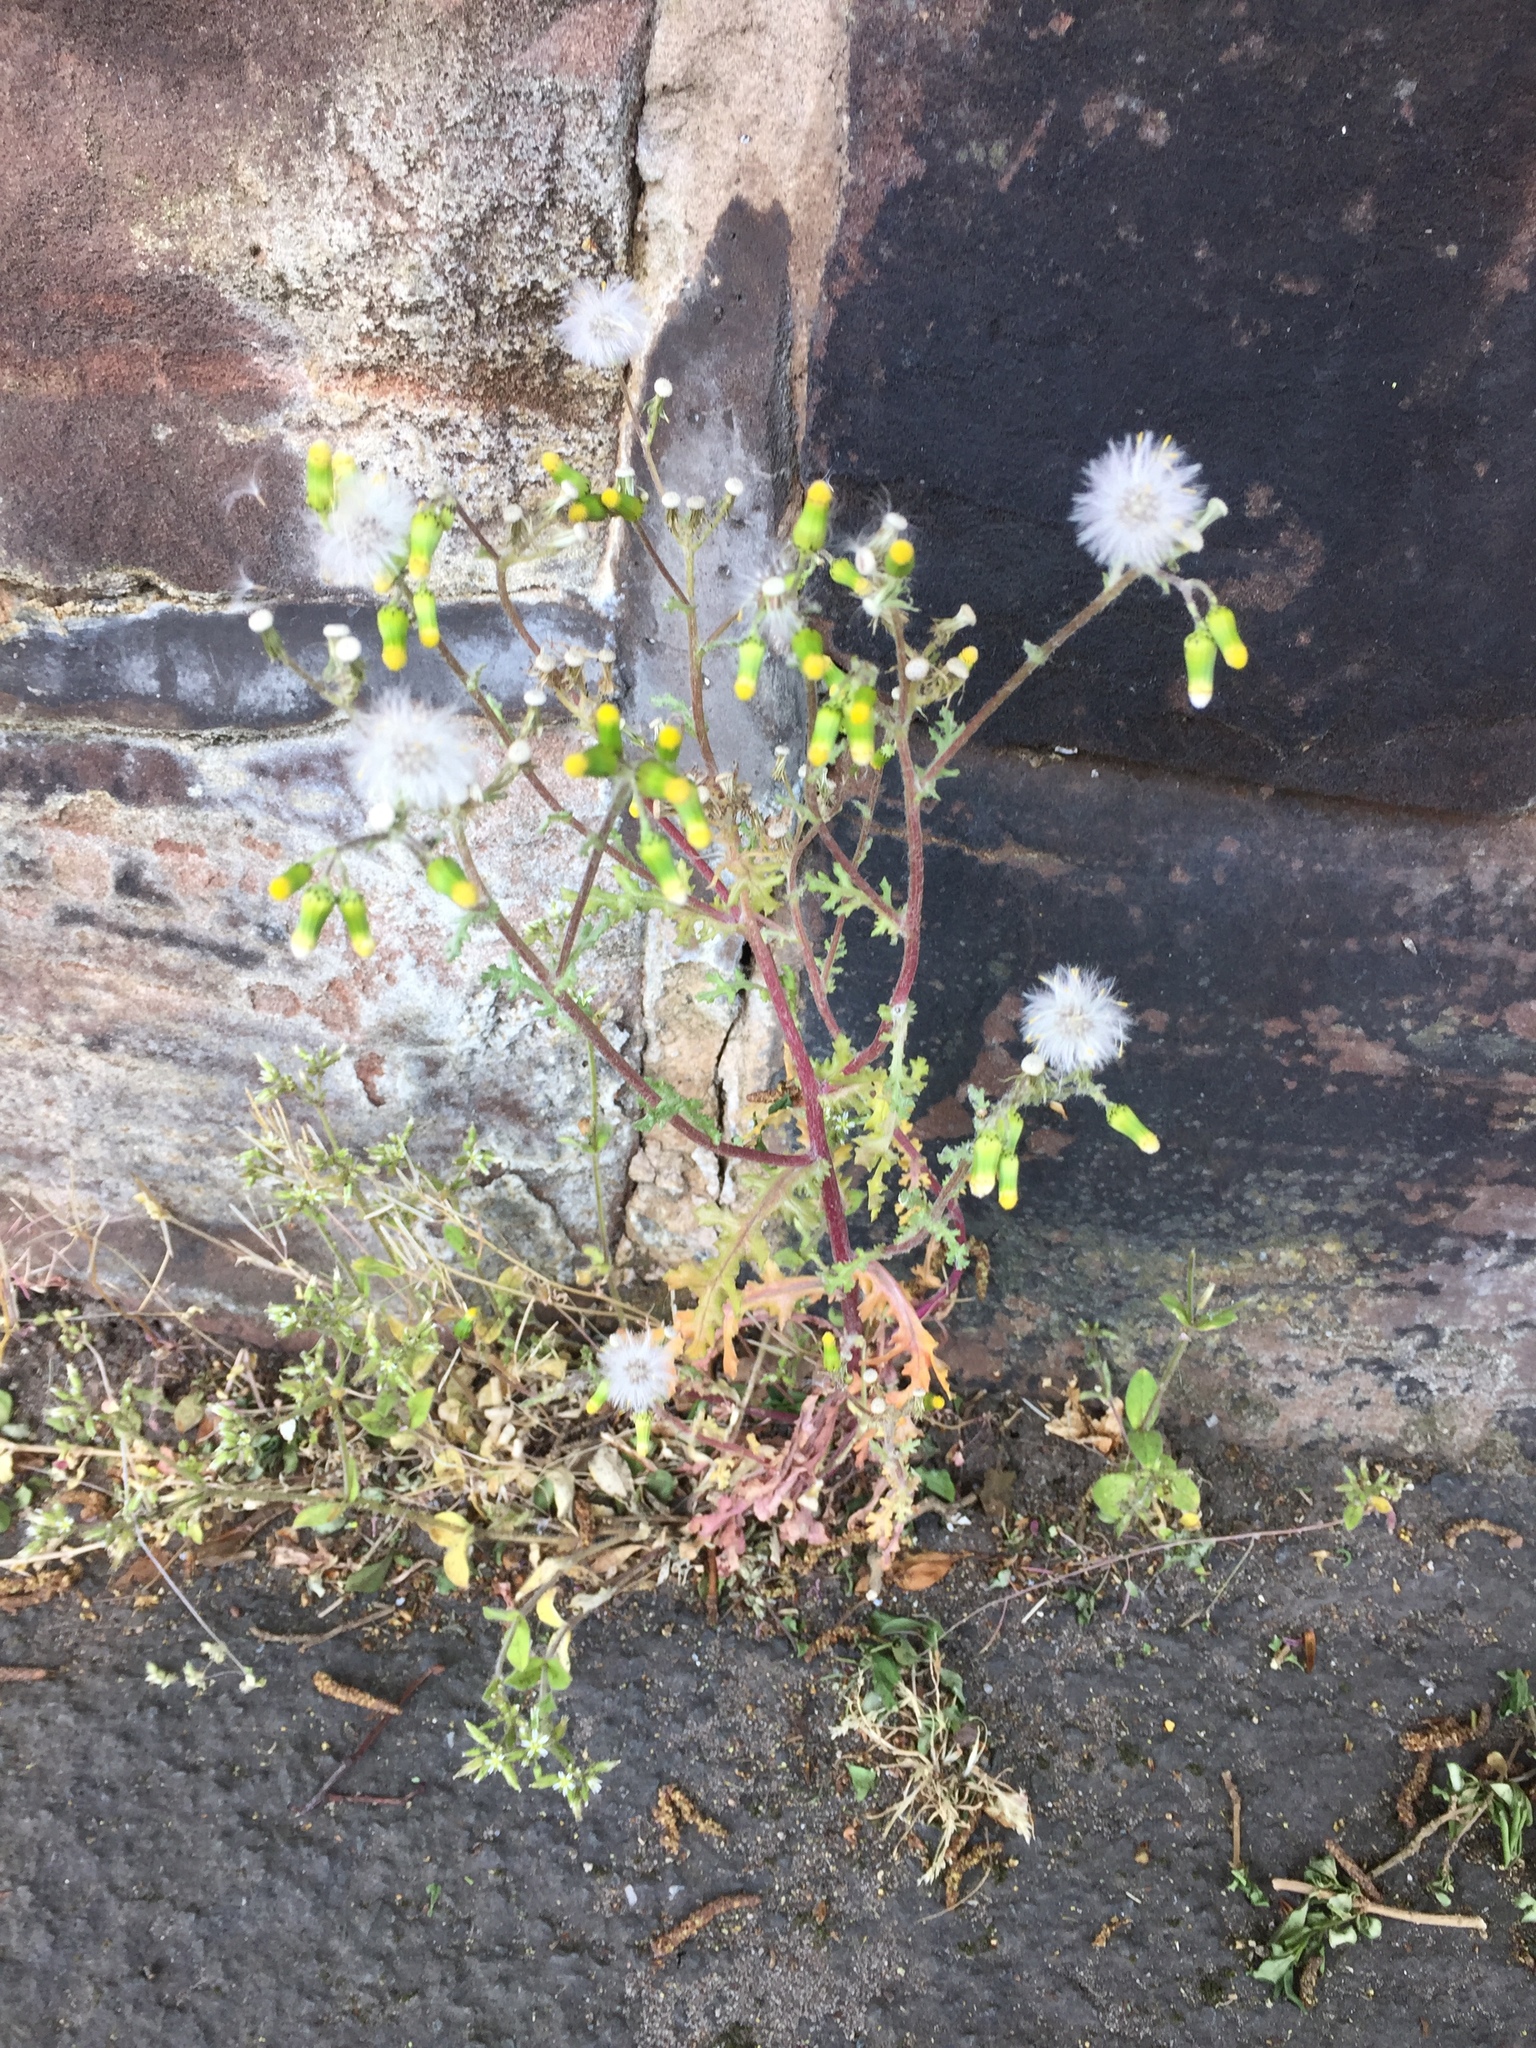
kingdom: Plantae
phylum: Tracheophyta
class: Magnoliopsida
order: Asterales
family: Asteraceae
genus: Senecio
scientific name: Senecio vulgaris
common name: Old-man-in-the-spring
